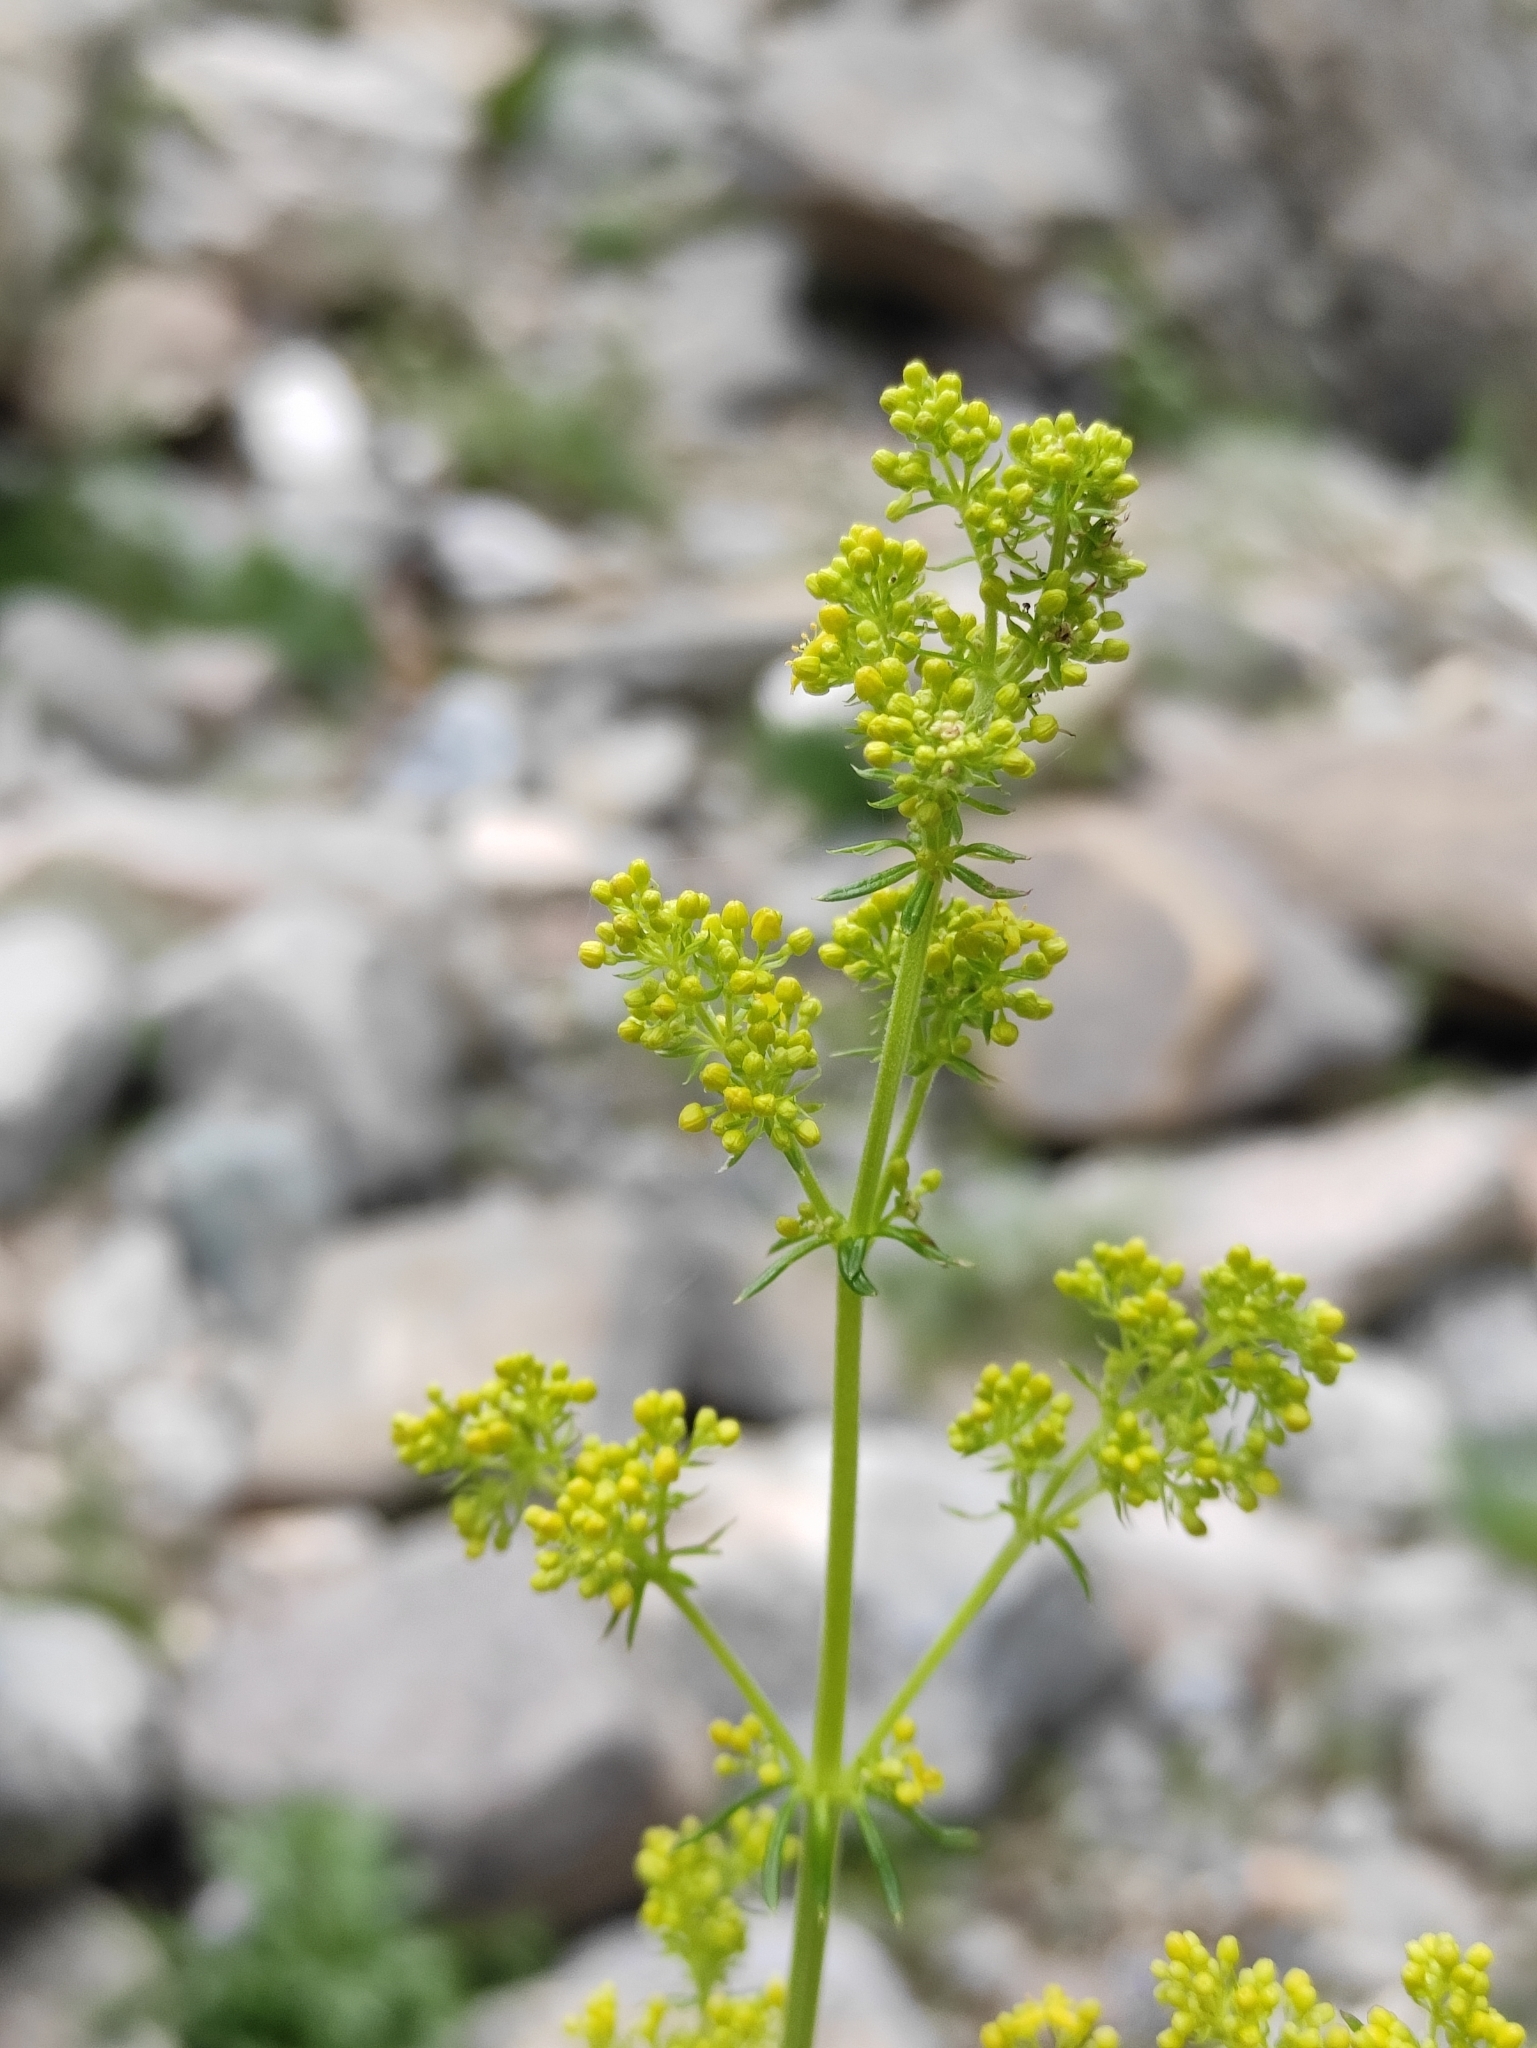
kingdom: Plantae
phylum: Tracheophyta
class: Magnoliopsida
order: Gentianales
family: Rubiaceae
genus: Galium
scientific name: Galium verum
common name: Lady's bedstraw
